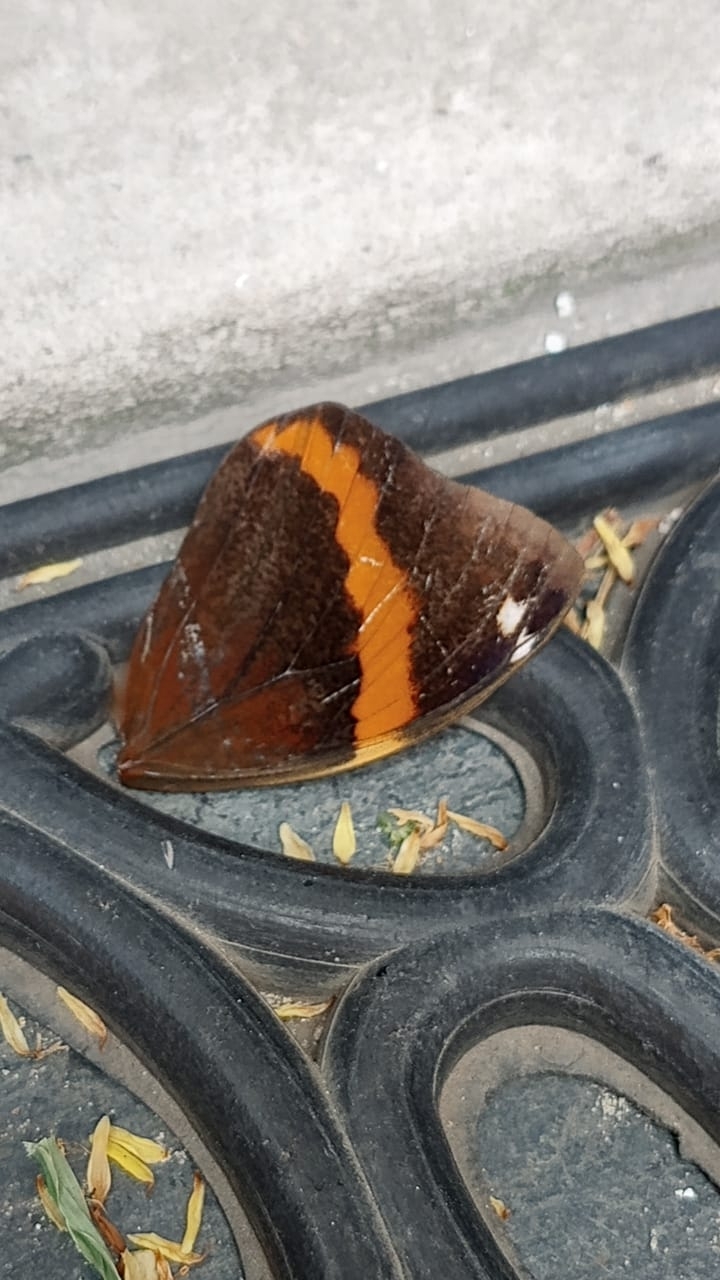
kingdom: Animalia
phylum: Arthropoda
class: Insecta
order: Lepidoptera
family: Nymphalidae
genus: Opsiphanes
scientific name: Opsiphanes invirae
